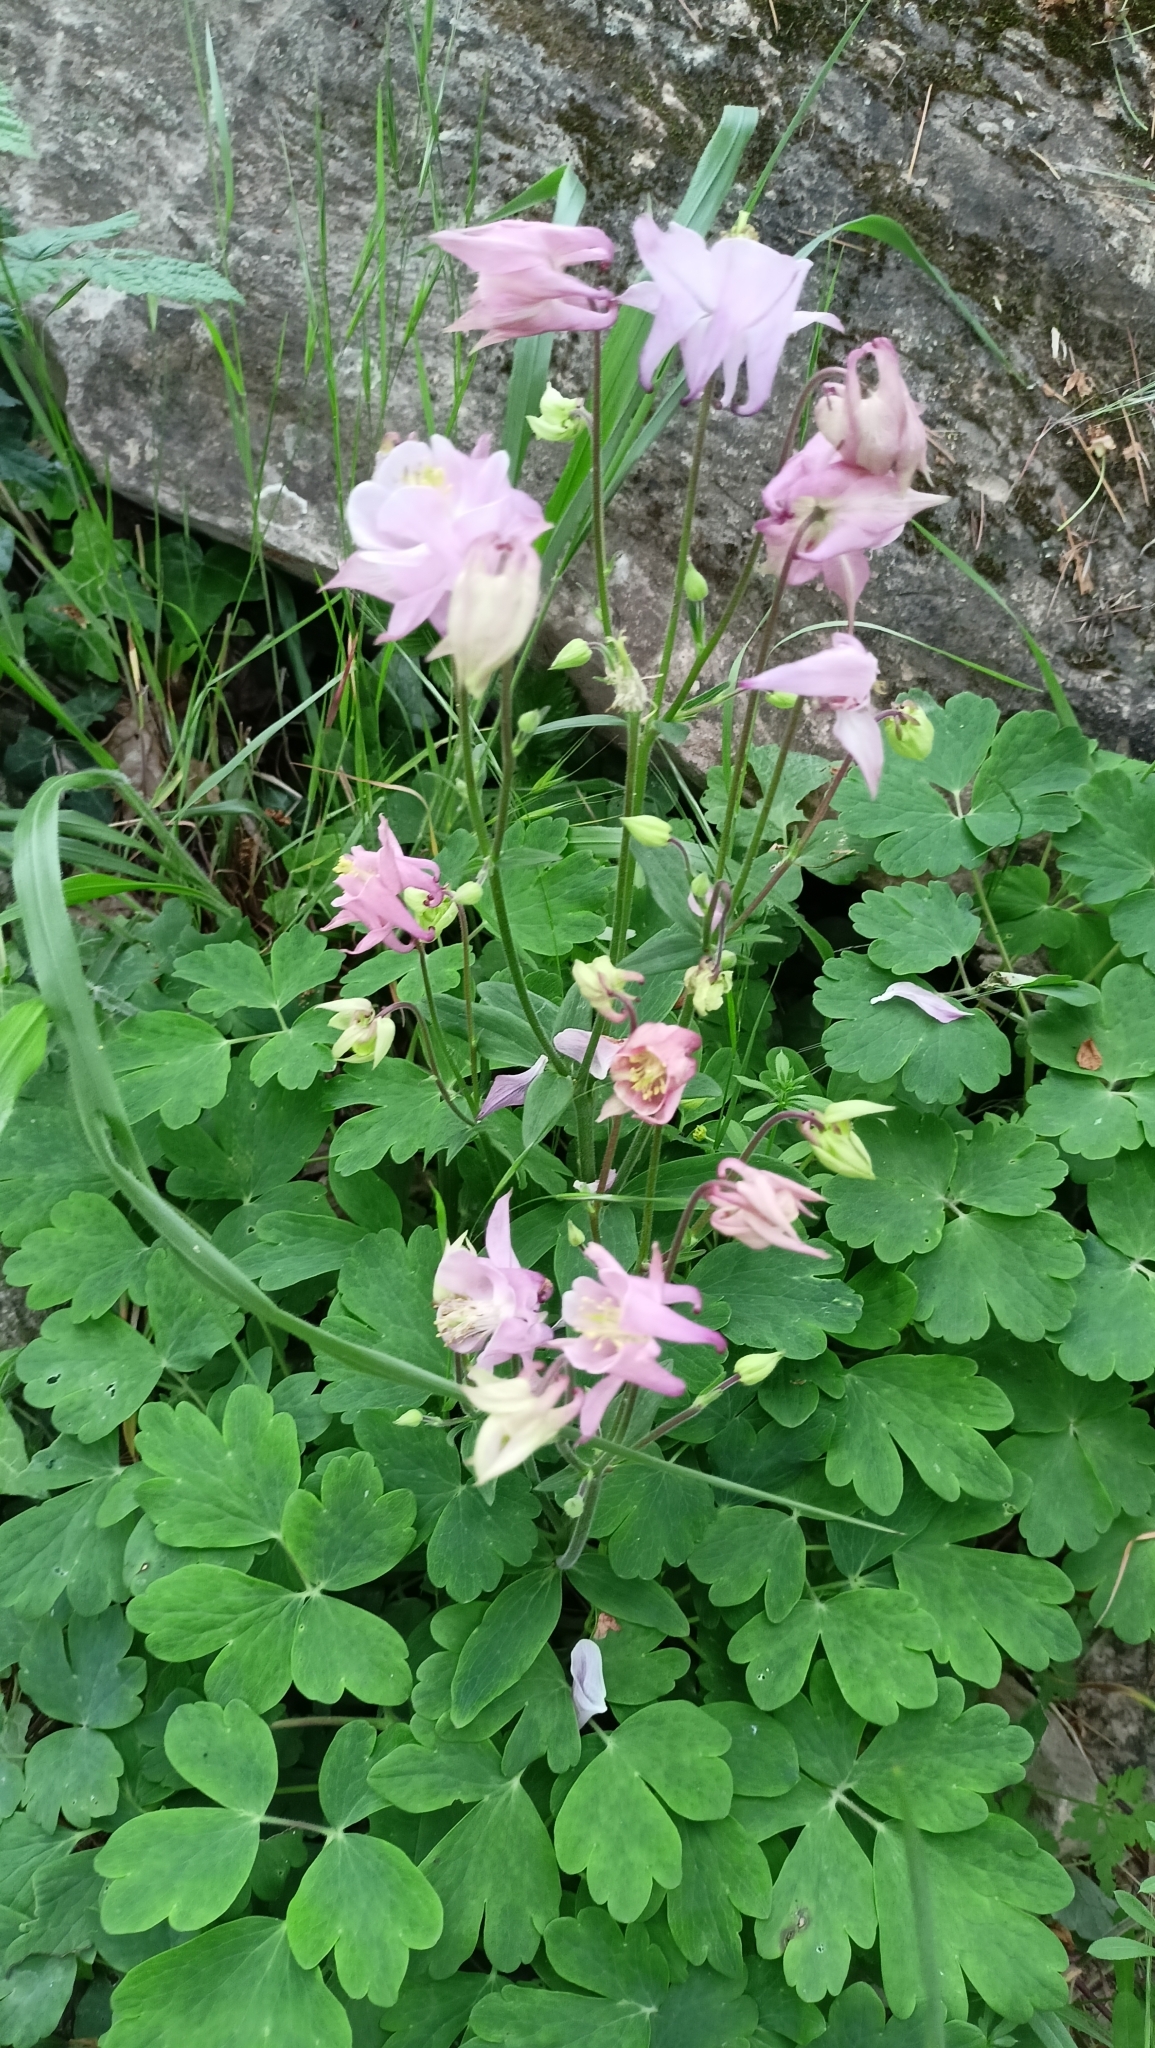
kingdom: Plantae
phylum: Tracheophyta
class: Magnoliopsida
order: Ranunculales
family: Ranunculaceae
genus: Aquilegia
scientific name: Aquilegia vulgaris
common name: Columbine
